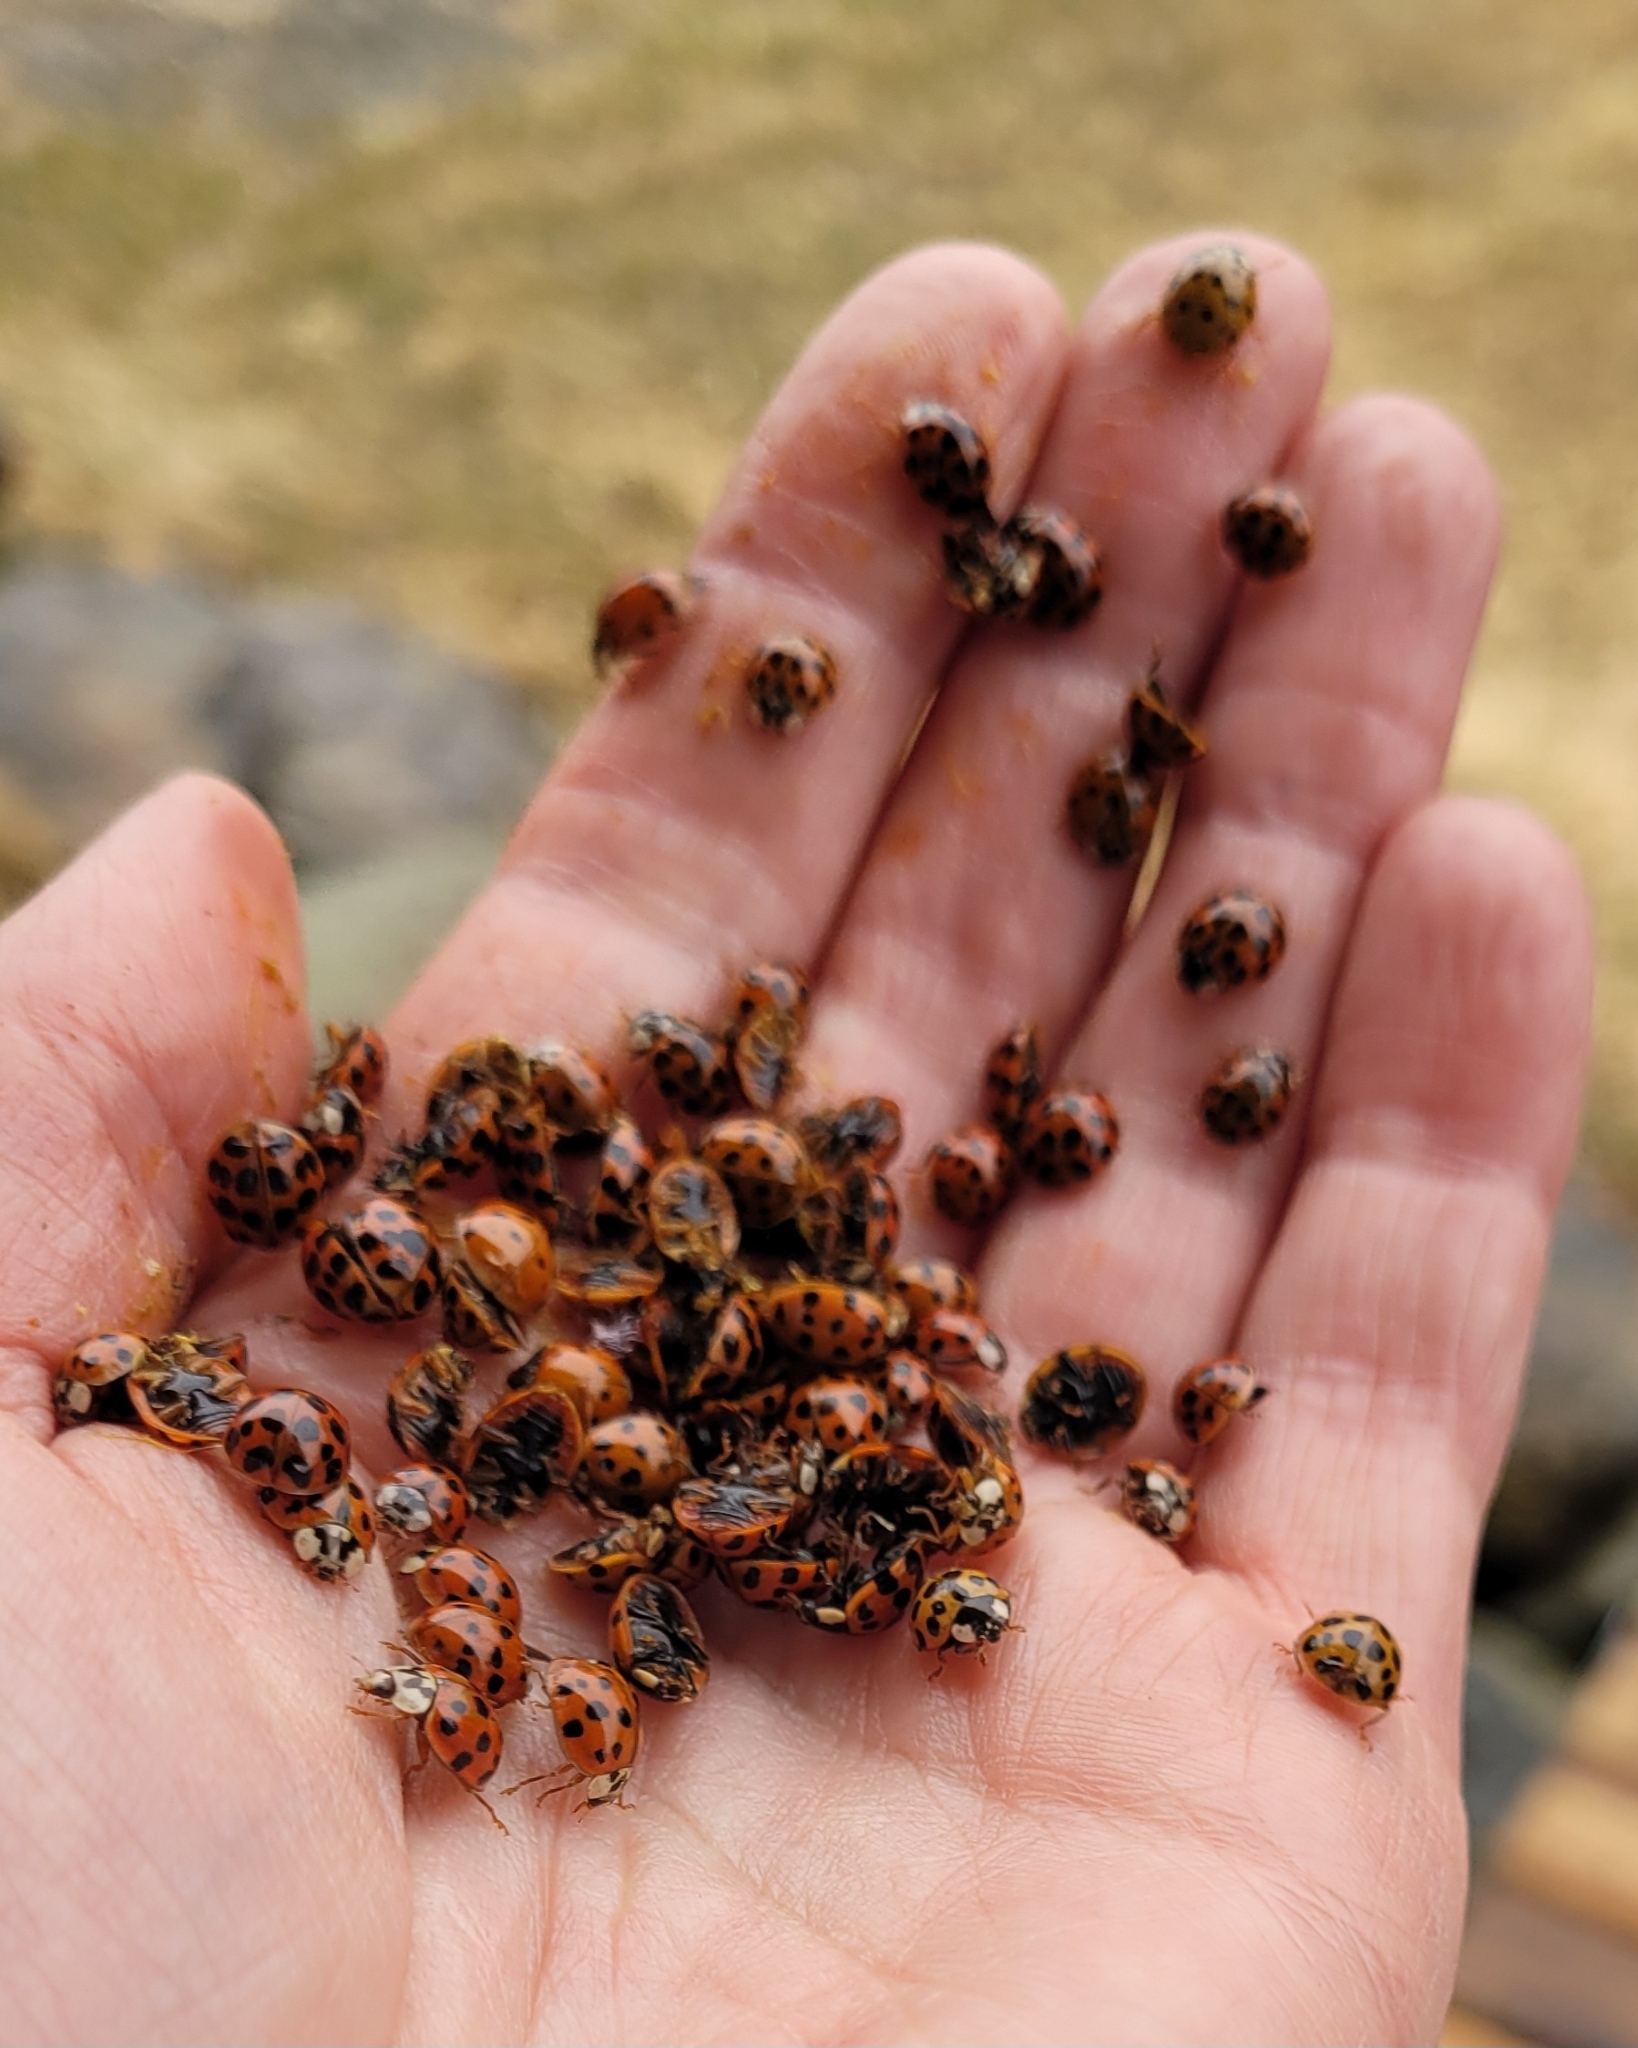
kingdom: Animalia
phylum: Arthropoda
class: Insecta
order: Coleoptera
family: Coccinellidae
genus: Harmonia
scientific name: Harmonia axyridis
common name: Harlequin ladybird
